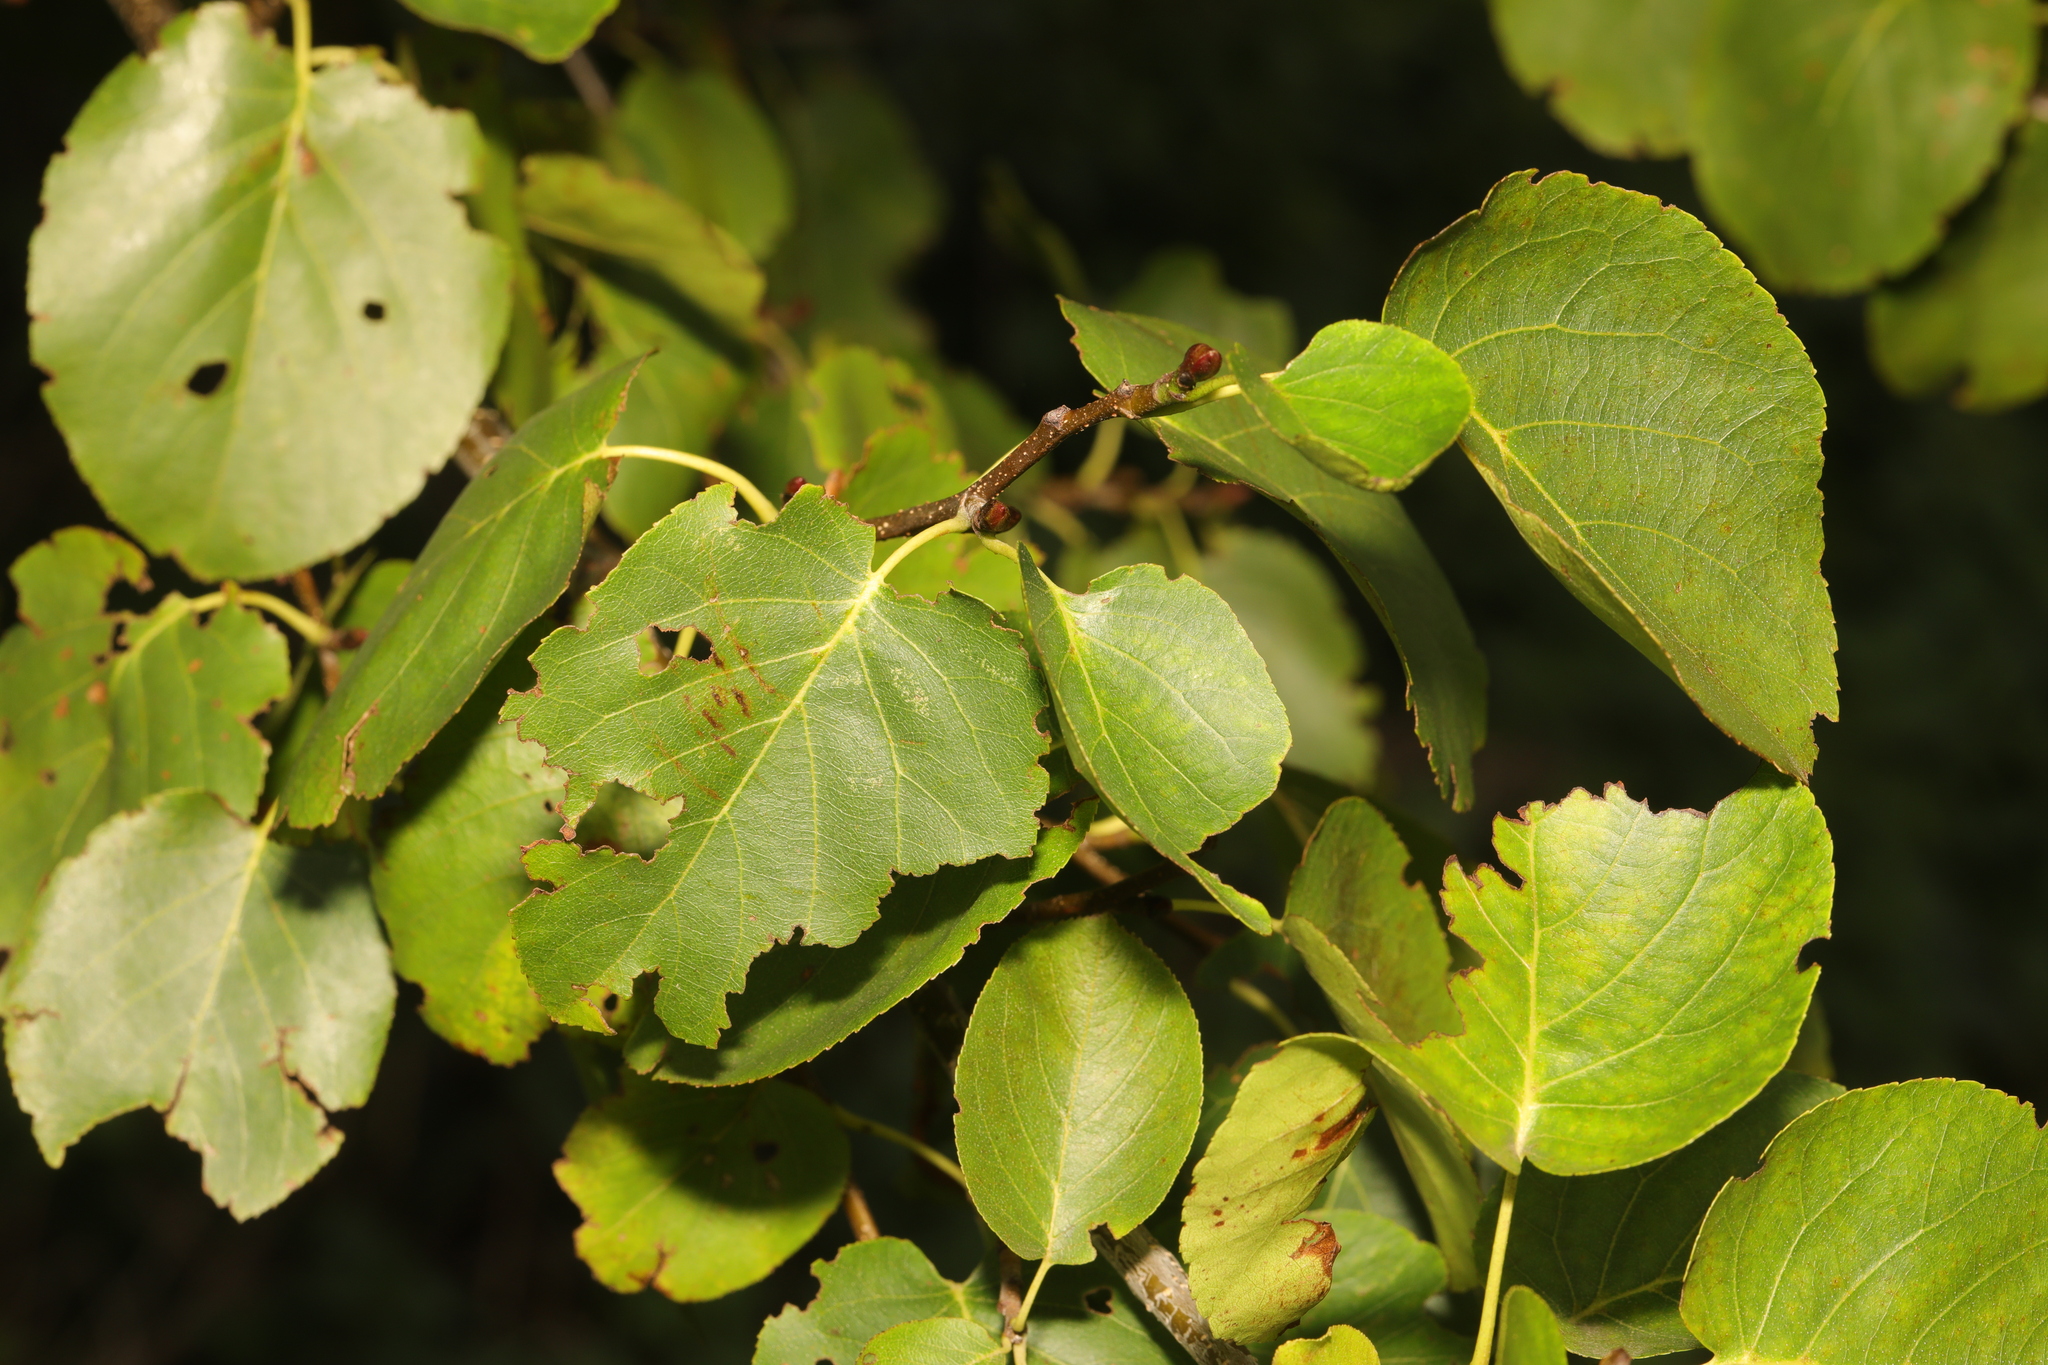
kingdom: Plantae
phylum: Tracheophyta
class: Magnoliopsida
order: Fagales
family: Betulaceae
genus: Alnus
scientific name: Alnus cordata
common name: Italian alder
